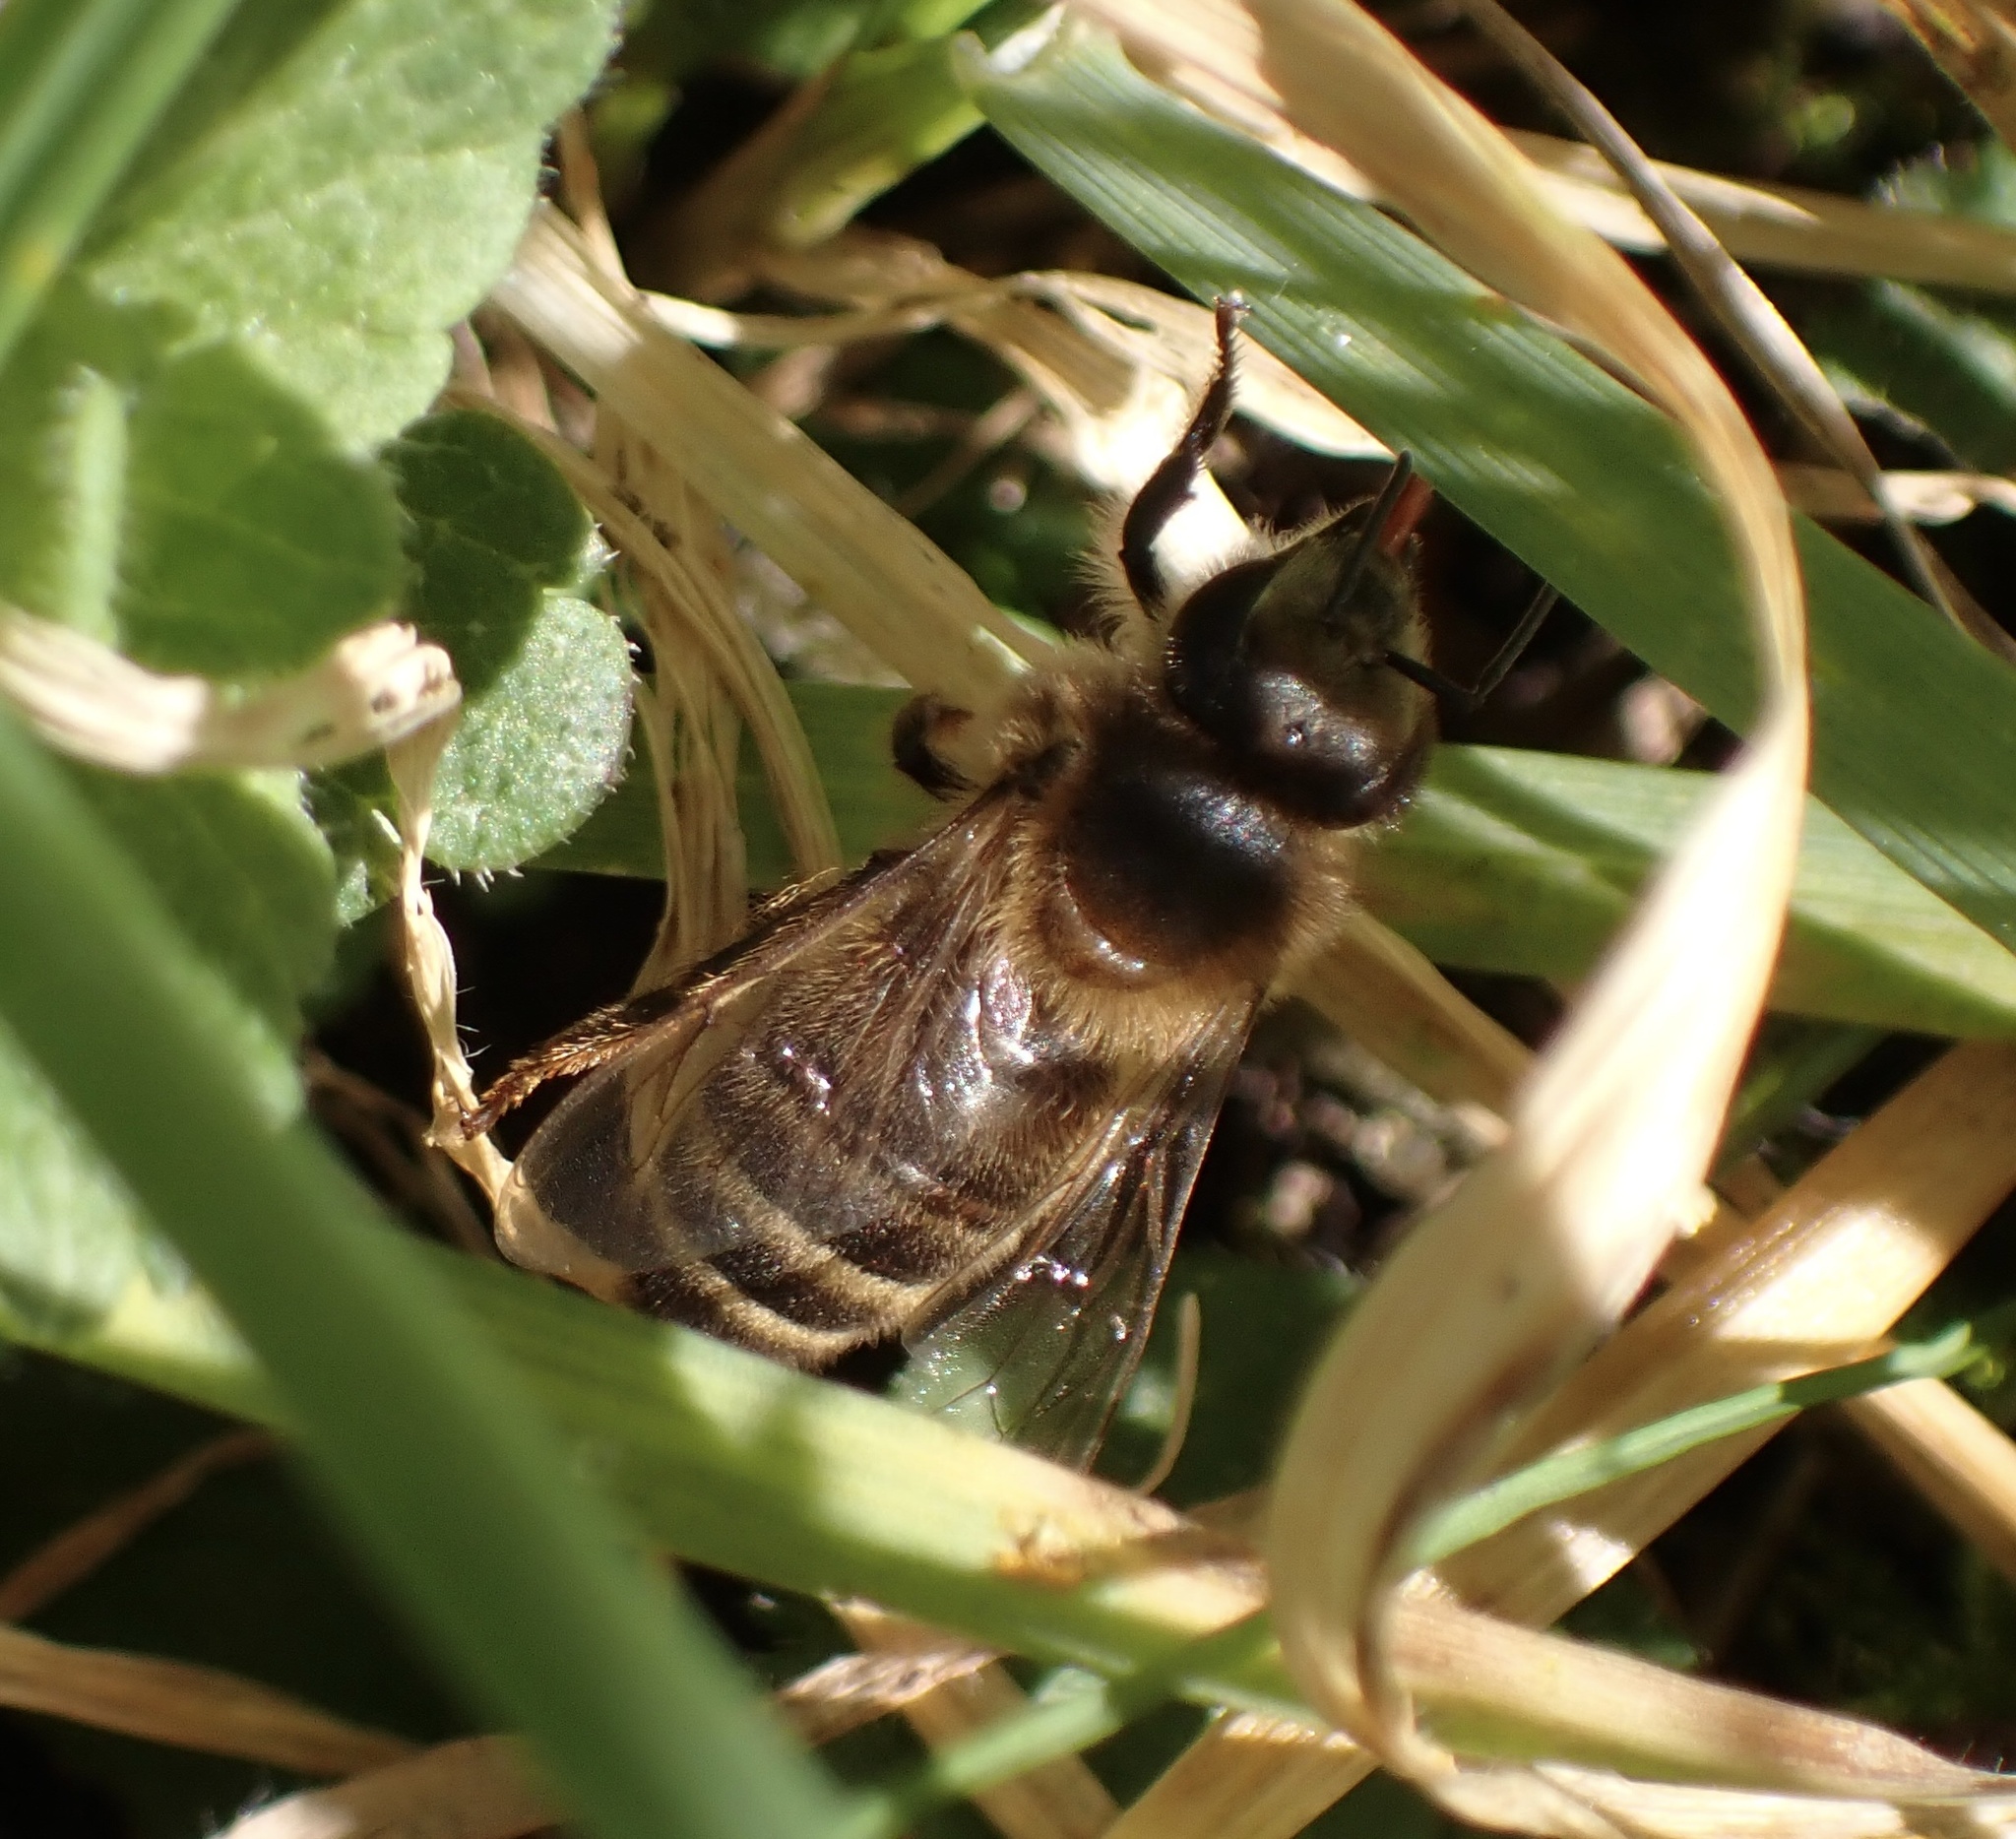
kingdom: Animalia
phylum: Arthropoda
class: Insecta
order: Hymenoptera
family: Apidae
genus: Apis
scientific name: Apis mellifera
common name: Honey bee
